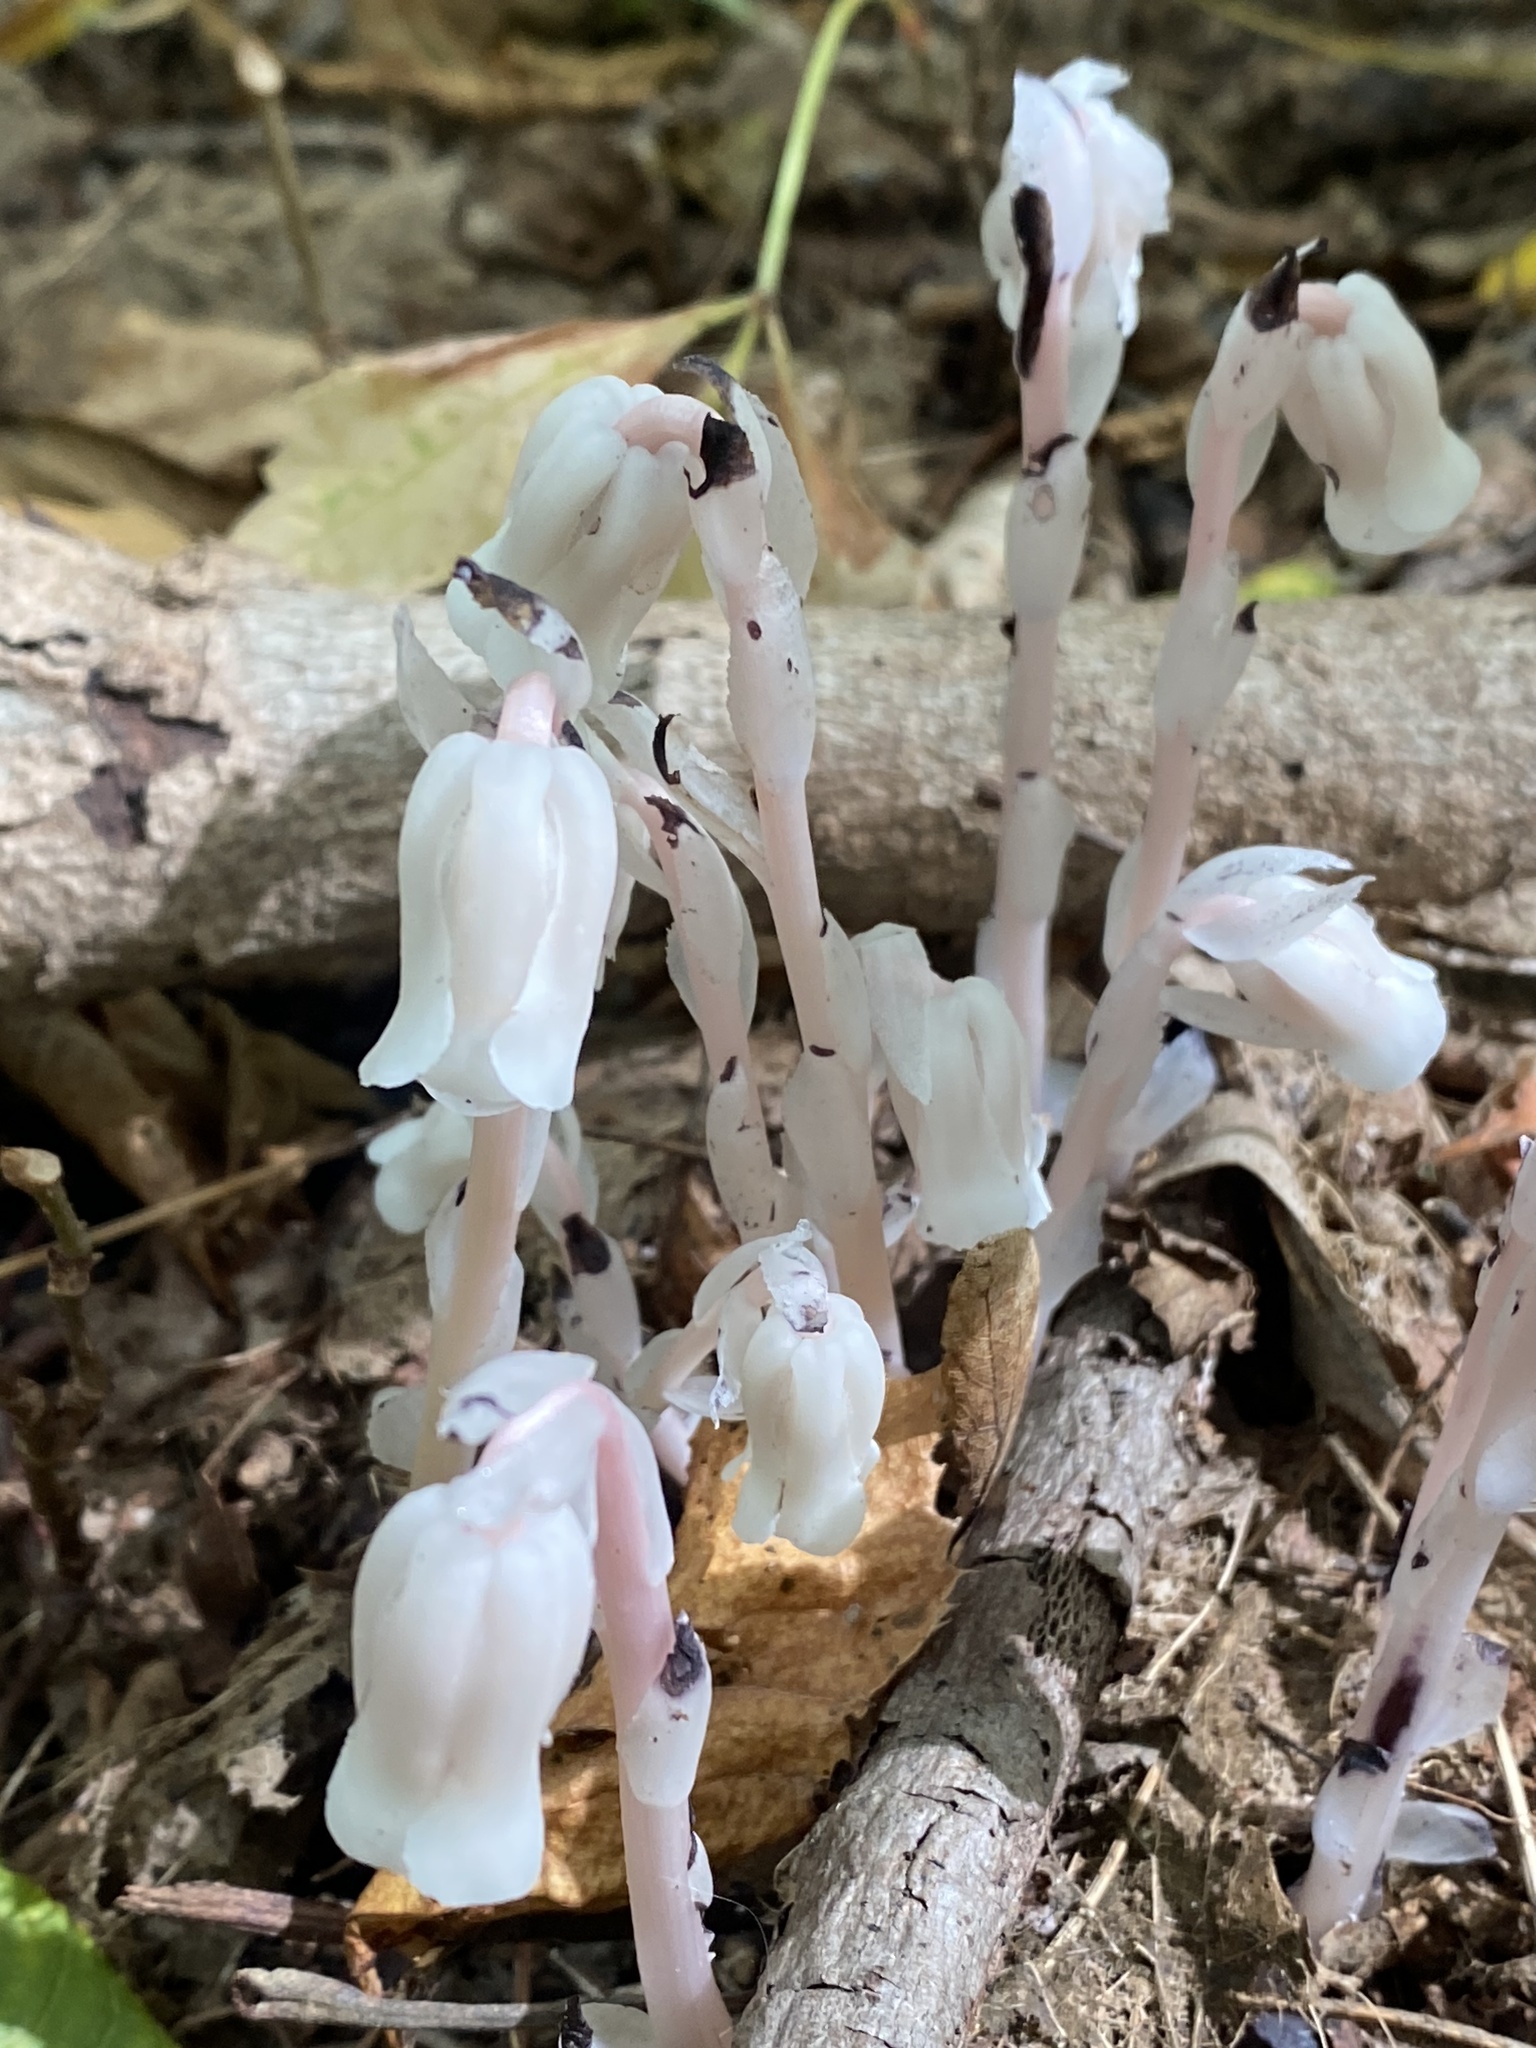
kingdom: Plantae
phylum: Tracheophyta
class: Magnoliopsida
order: Ericales
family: Ericaceae
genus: Monotropa
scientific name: Monotropa uniflora
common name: Convulsion root
